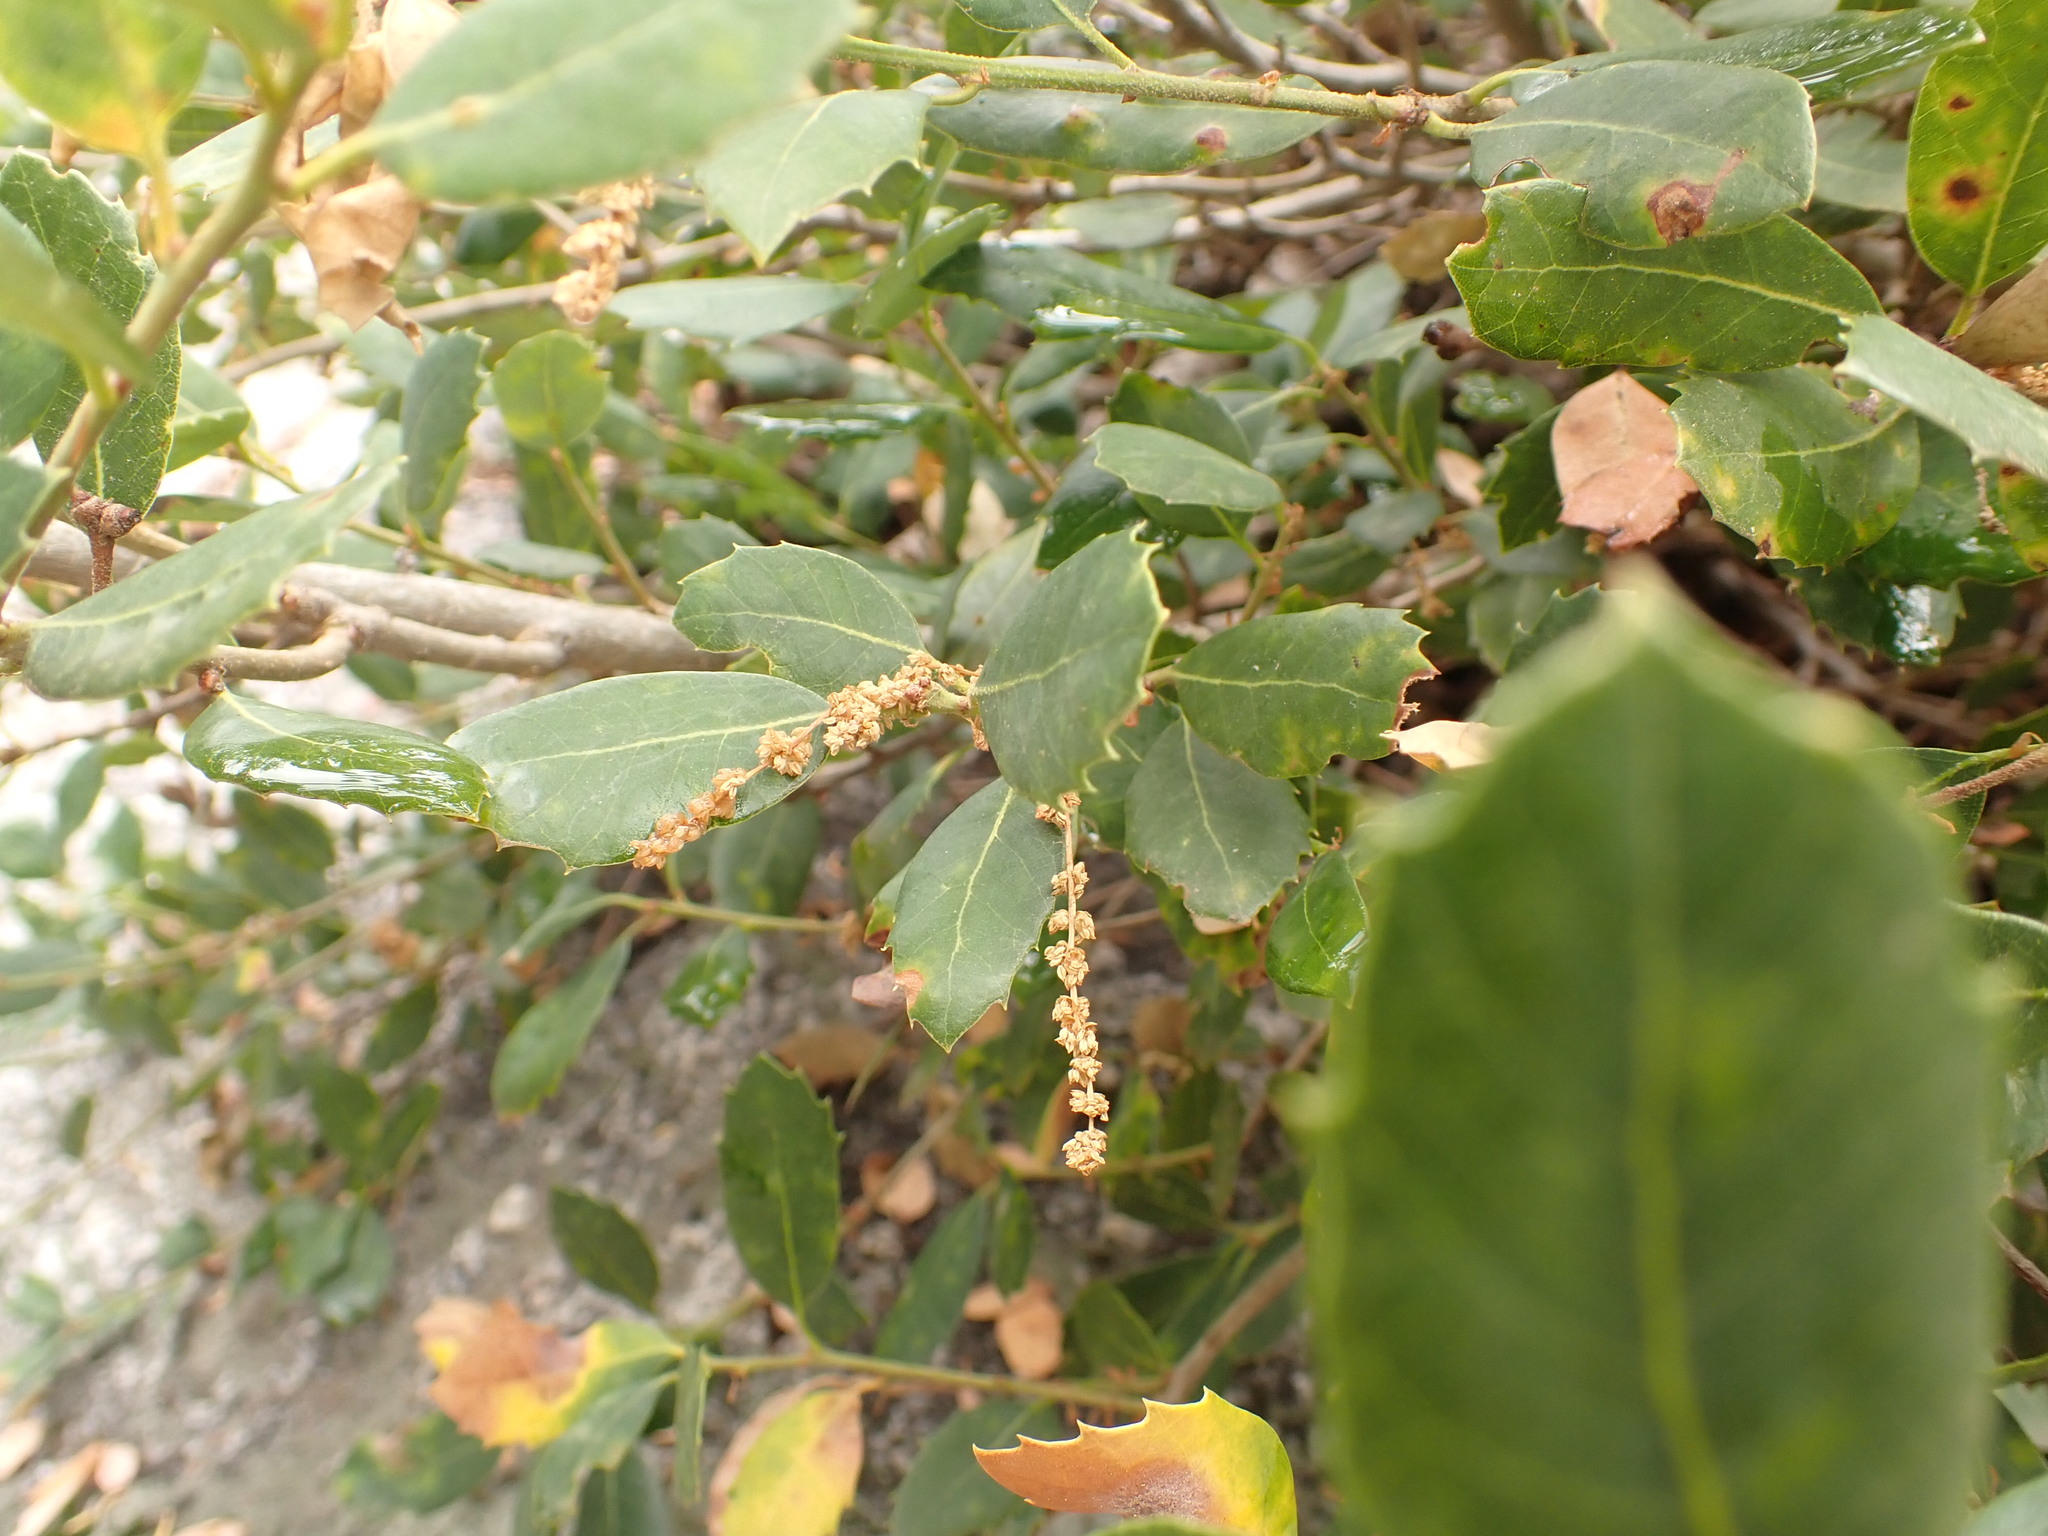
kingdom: Plantae
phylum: Tracheophyta
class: Magnoliopsida
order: Fagales
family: Fagaceae
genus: Quercus
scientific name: Quercus vacciniifolia
